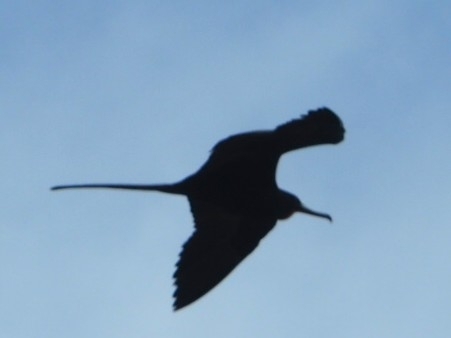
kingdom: Animalia
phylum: Chordata
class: Aves
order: Suliformes
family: Fregatidae
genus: Fregata
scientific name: Fregata magnificens
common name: Magnificent frigatebird
